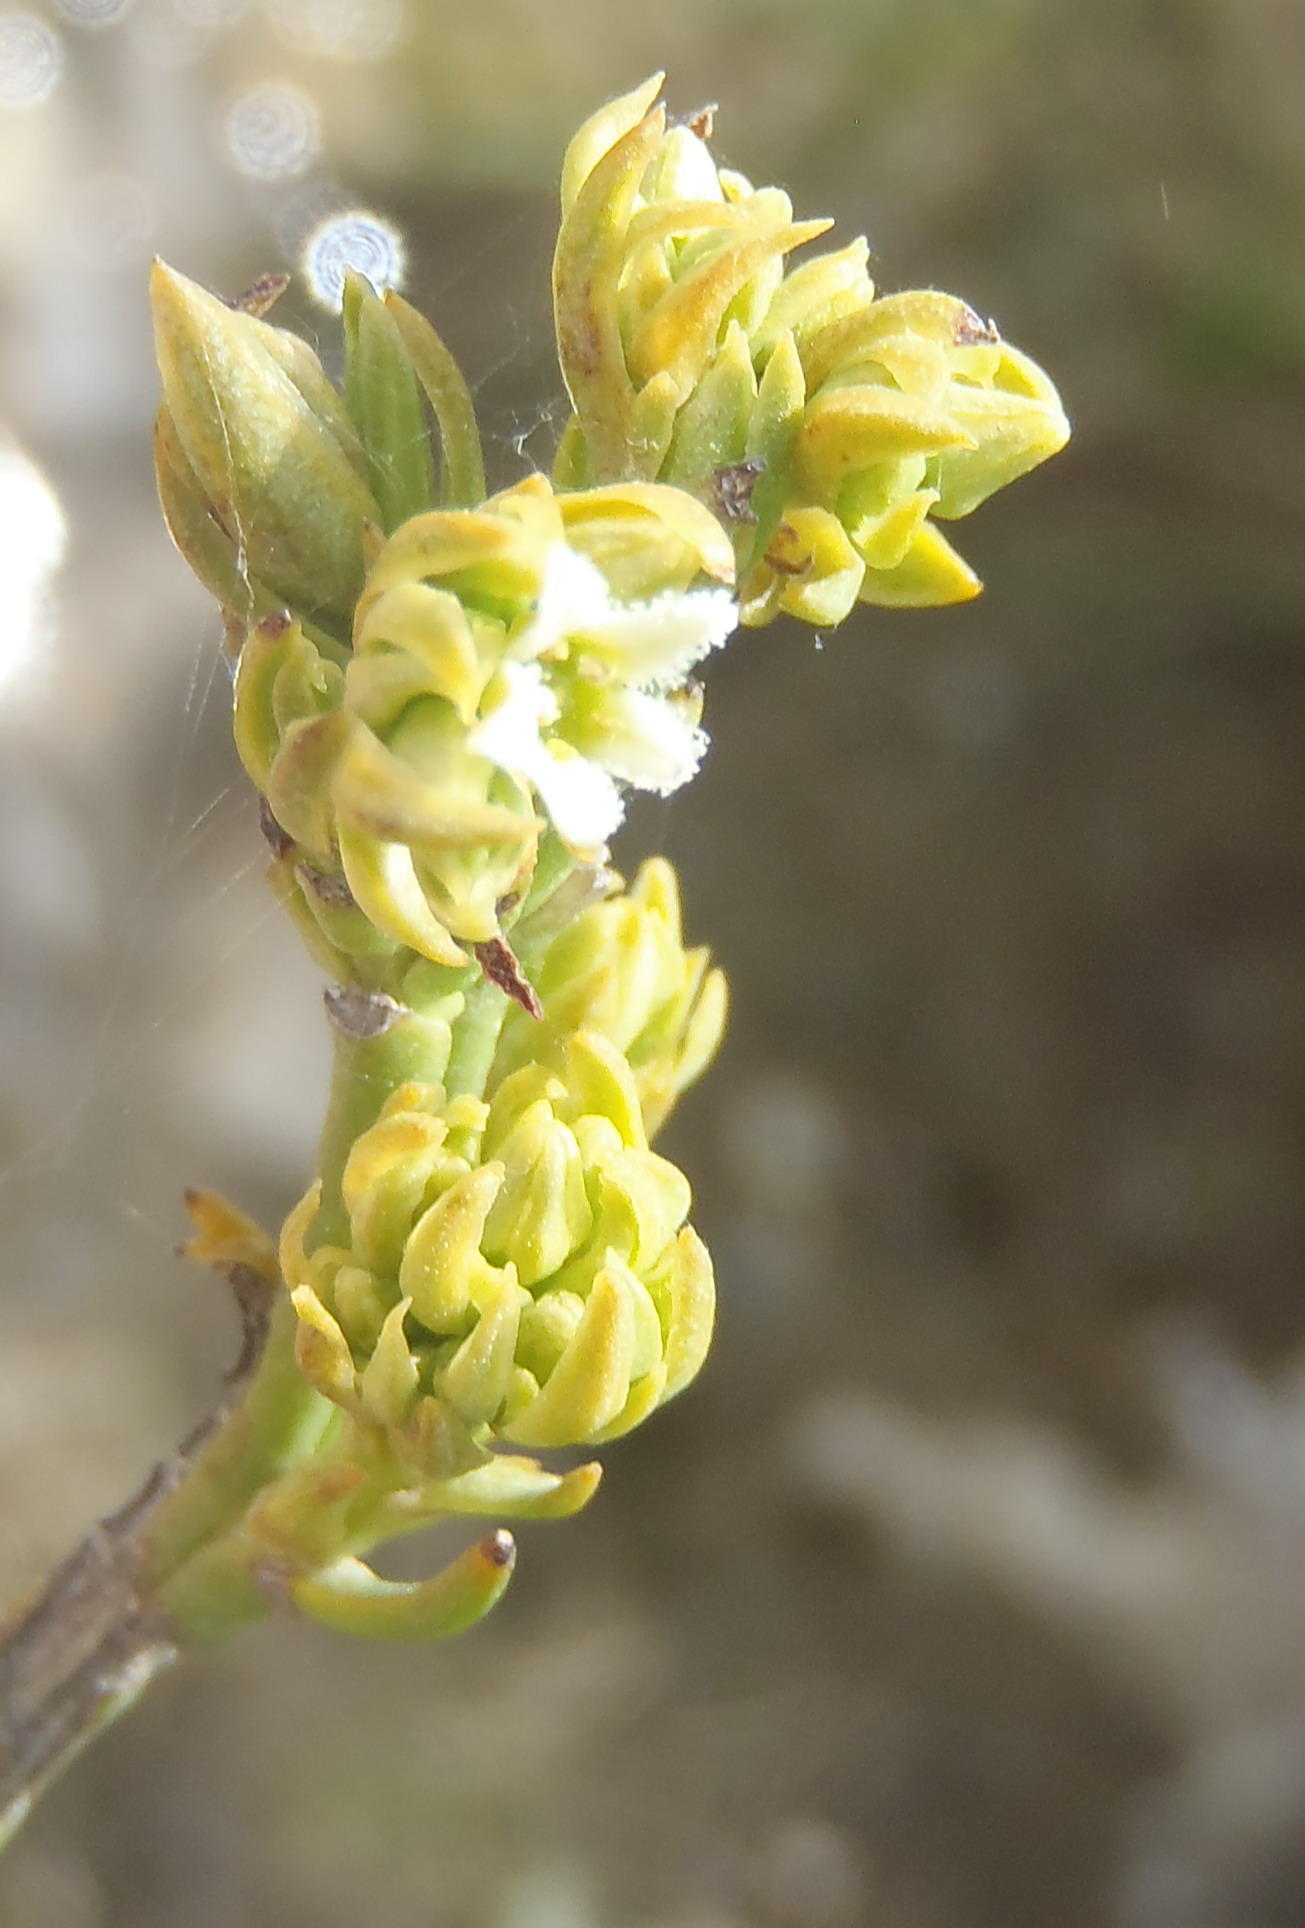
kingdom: Plantae
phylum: Tracheophyta
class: Magnoliopsida
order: Santalales
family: Thesiaceae
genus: Thesium
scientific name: Thesium umbelliferum
